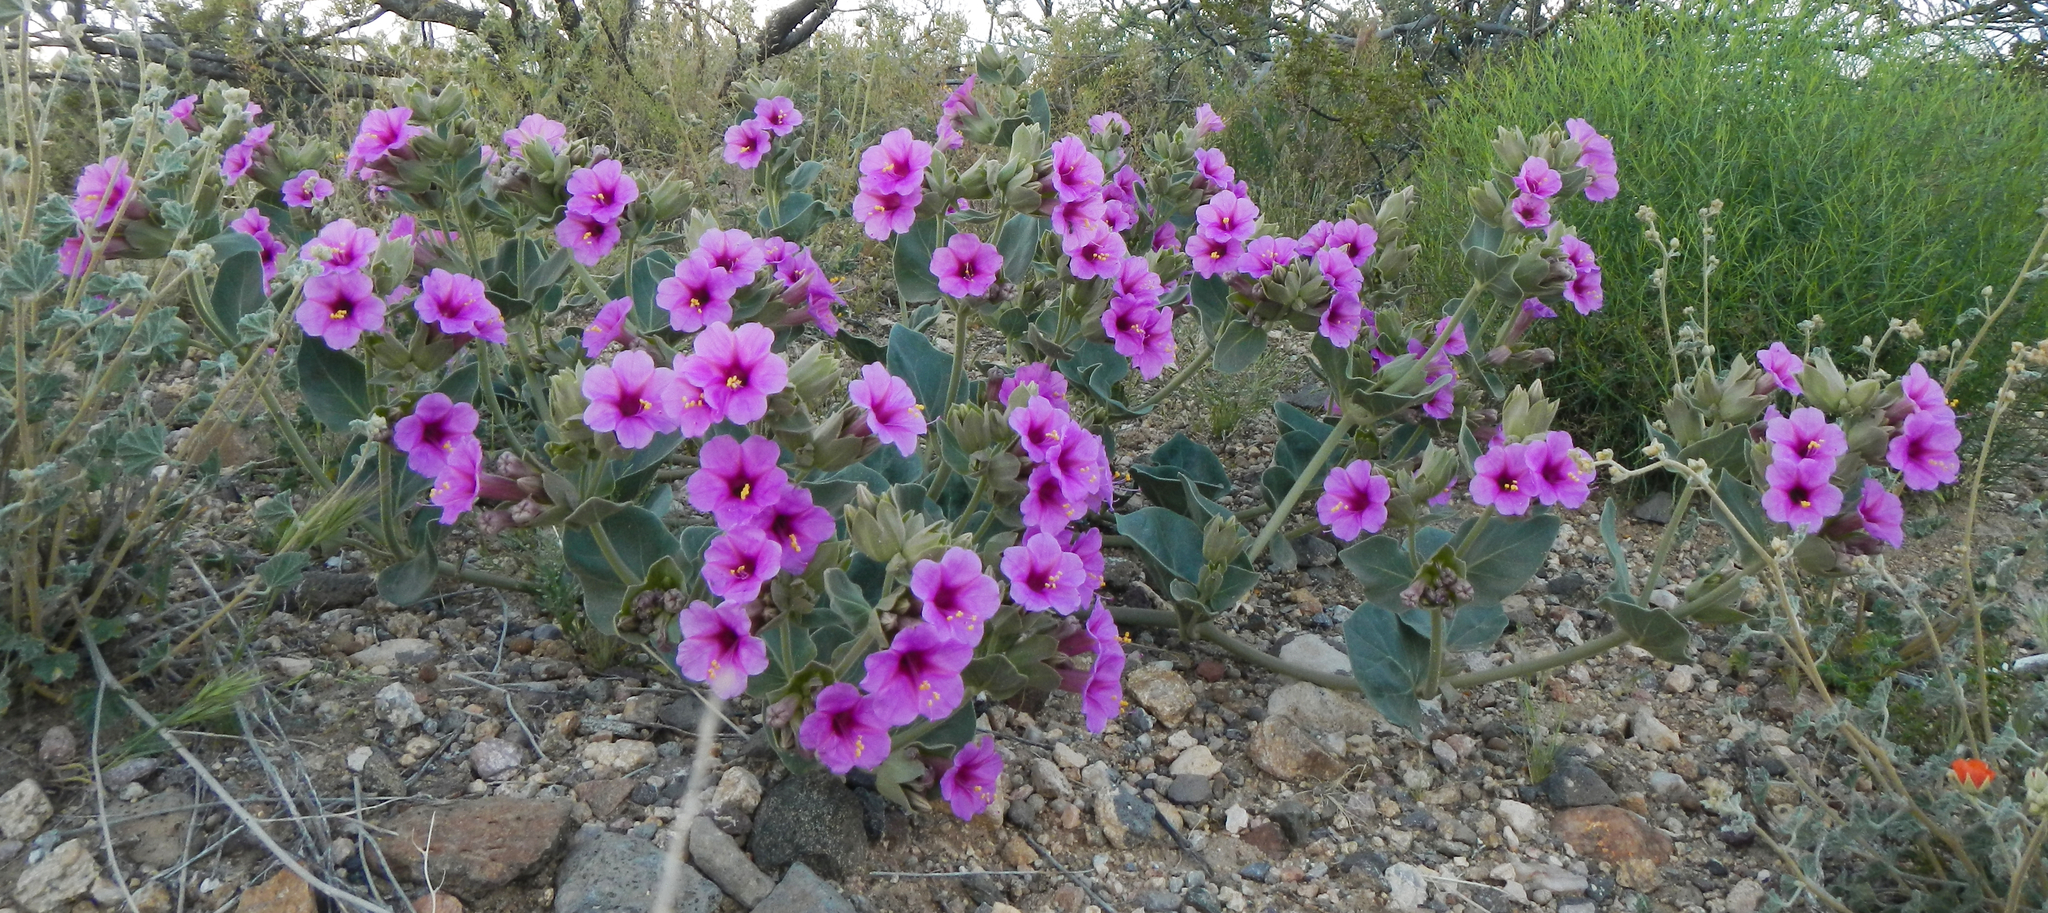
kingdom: Plantae
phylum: Tracheophyta
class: Magnoliopsida
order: Caryophyllales
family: Nyctaginaceae
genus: Mirabilis
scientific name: Mirabilis multiflora
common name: Froebel's four-o'clock
